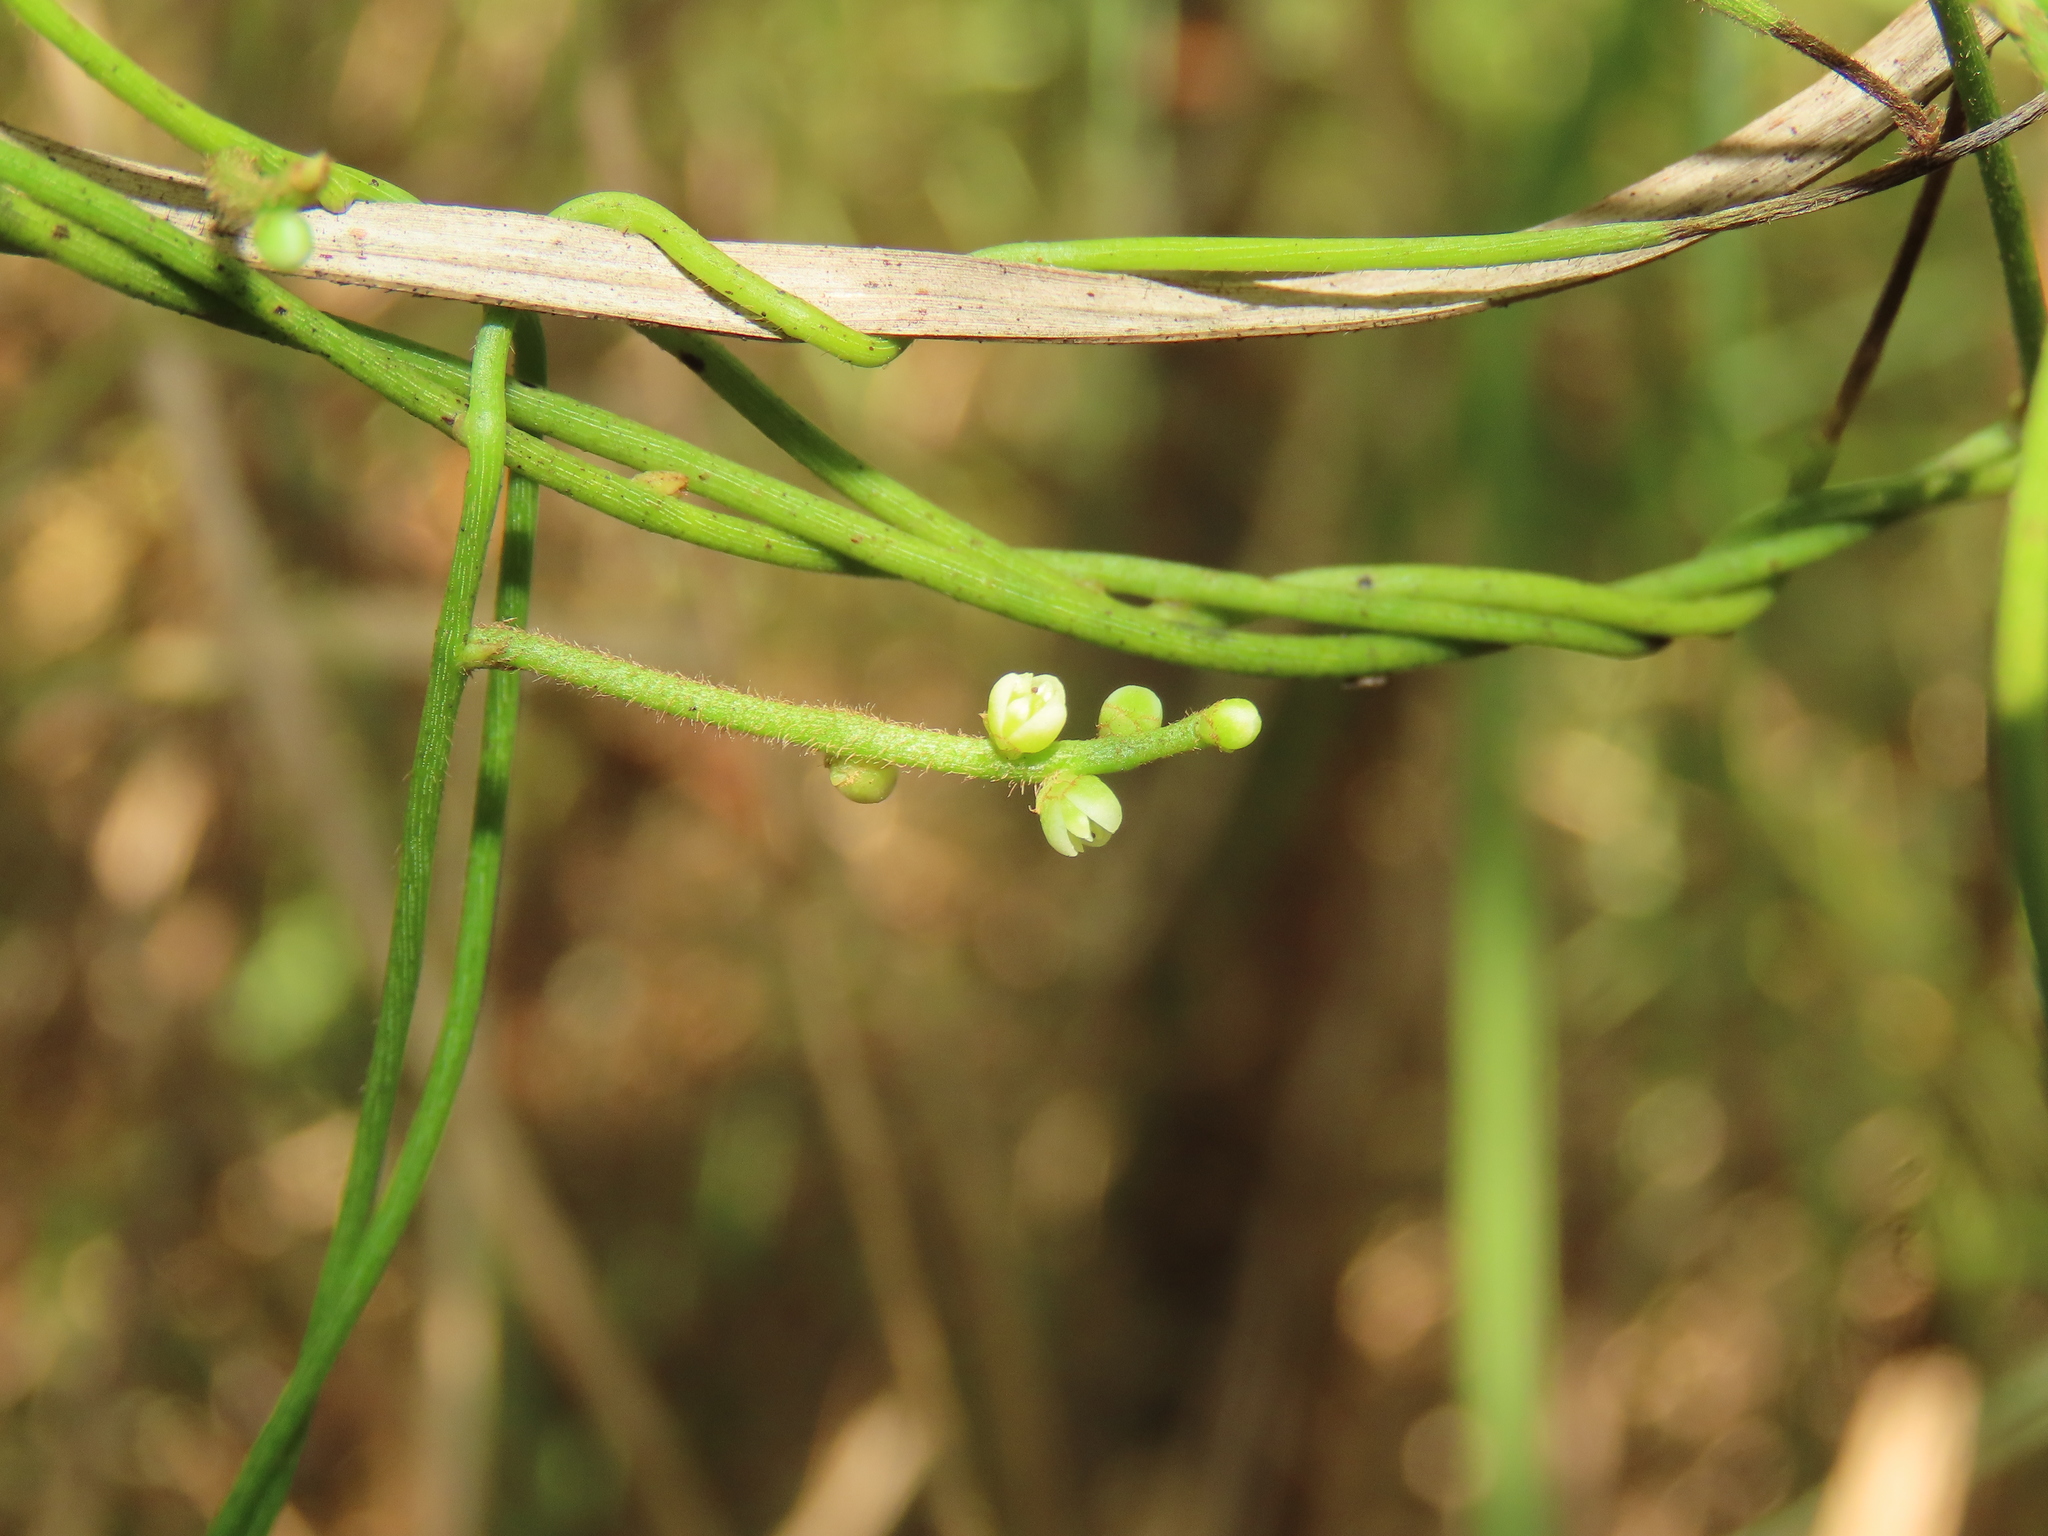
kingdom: Plantae
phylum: Tracheophyta
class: Magnoliopsida
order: Laurales
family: Lauraceae
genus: Cassytha
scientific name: Cassytha filiformis
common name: Dodder-laurel
